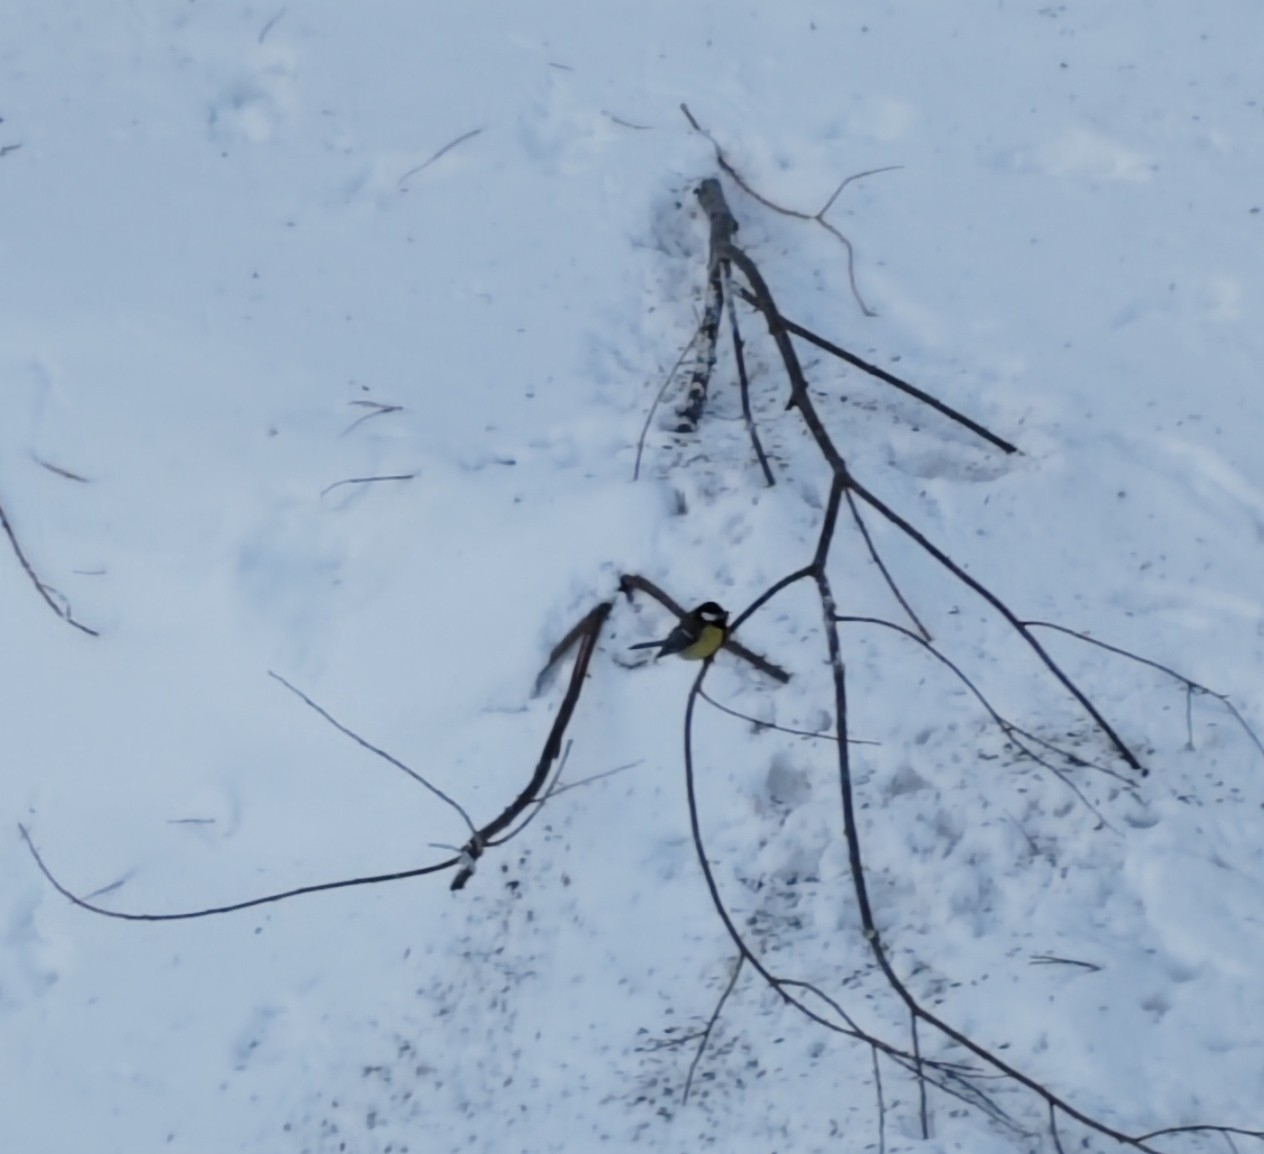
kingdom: Animalia
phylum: Chordata
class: Aves
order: Passeriformes
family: Paridae
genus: Parus
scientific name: Parus major
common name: Great tit
